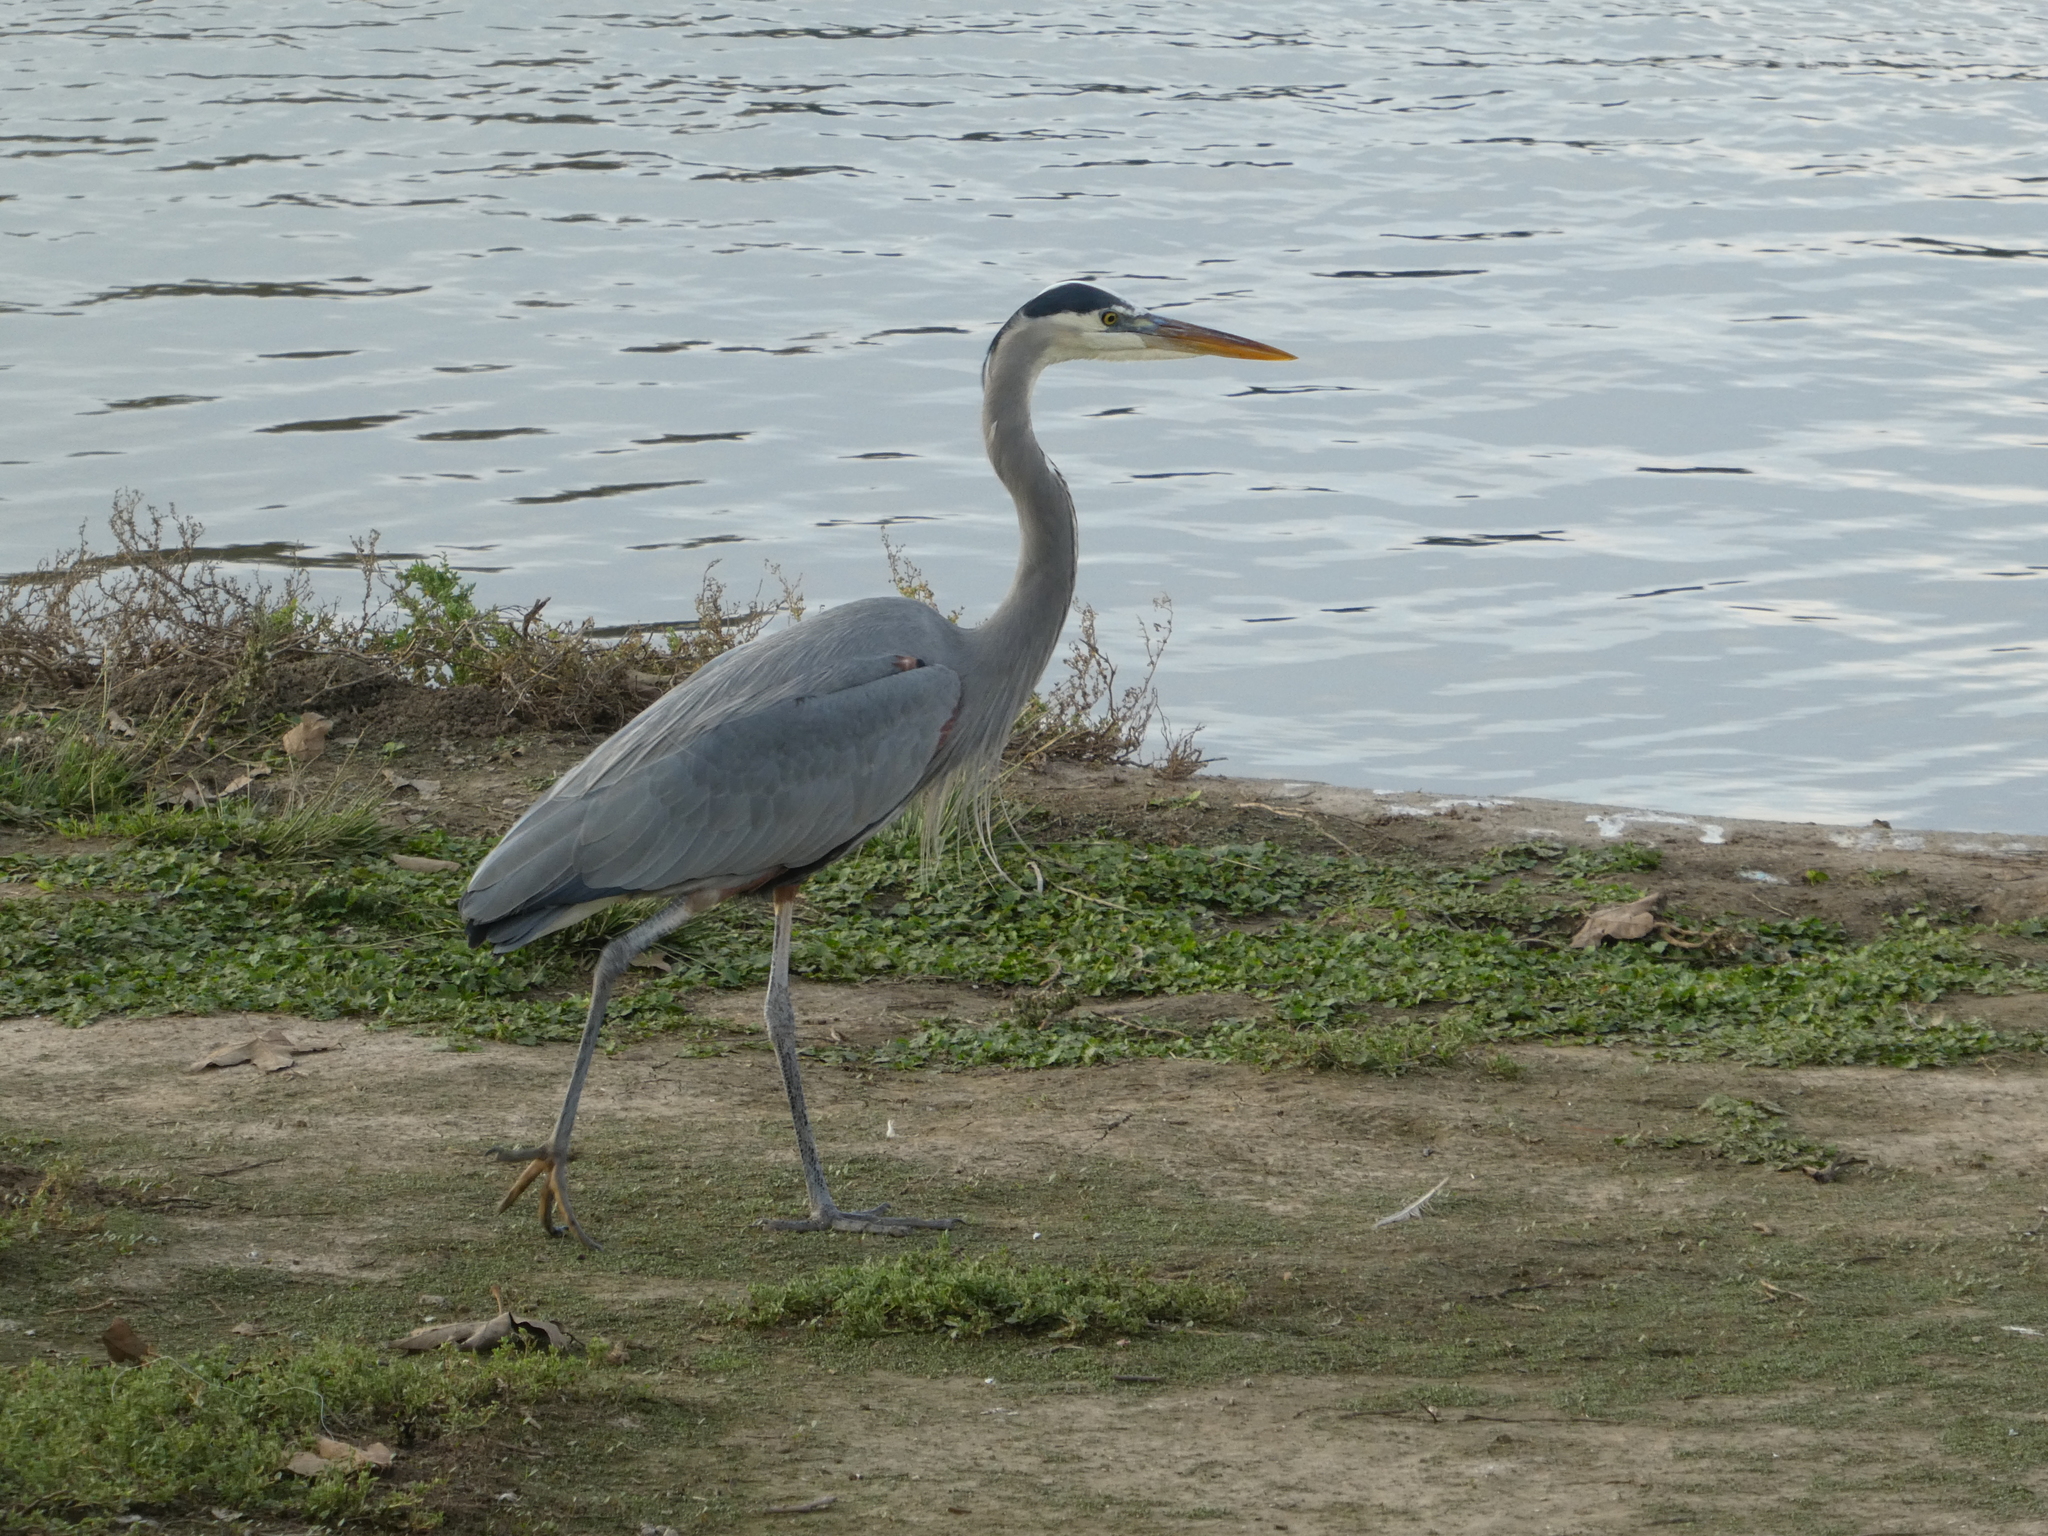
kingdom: Animalia
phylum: Chordata
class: Aves
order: Pelecaniformes
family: Ardeidae
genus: Ardea
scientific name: Ardea herodias
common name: Great blue heron
